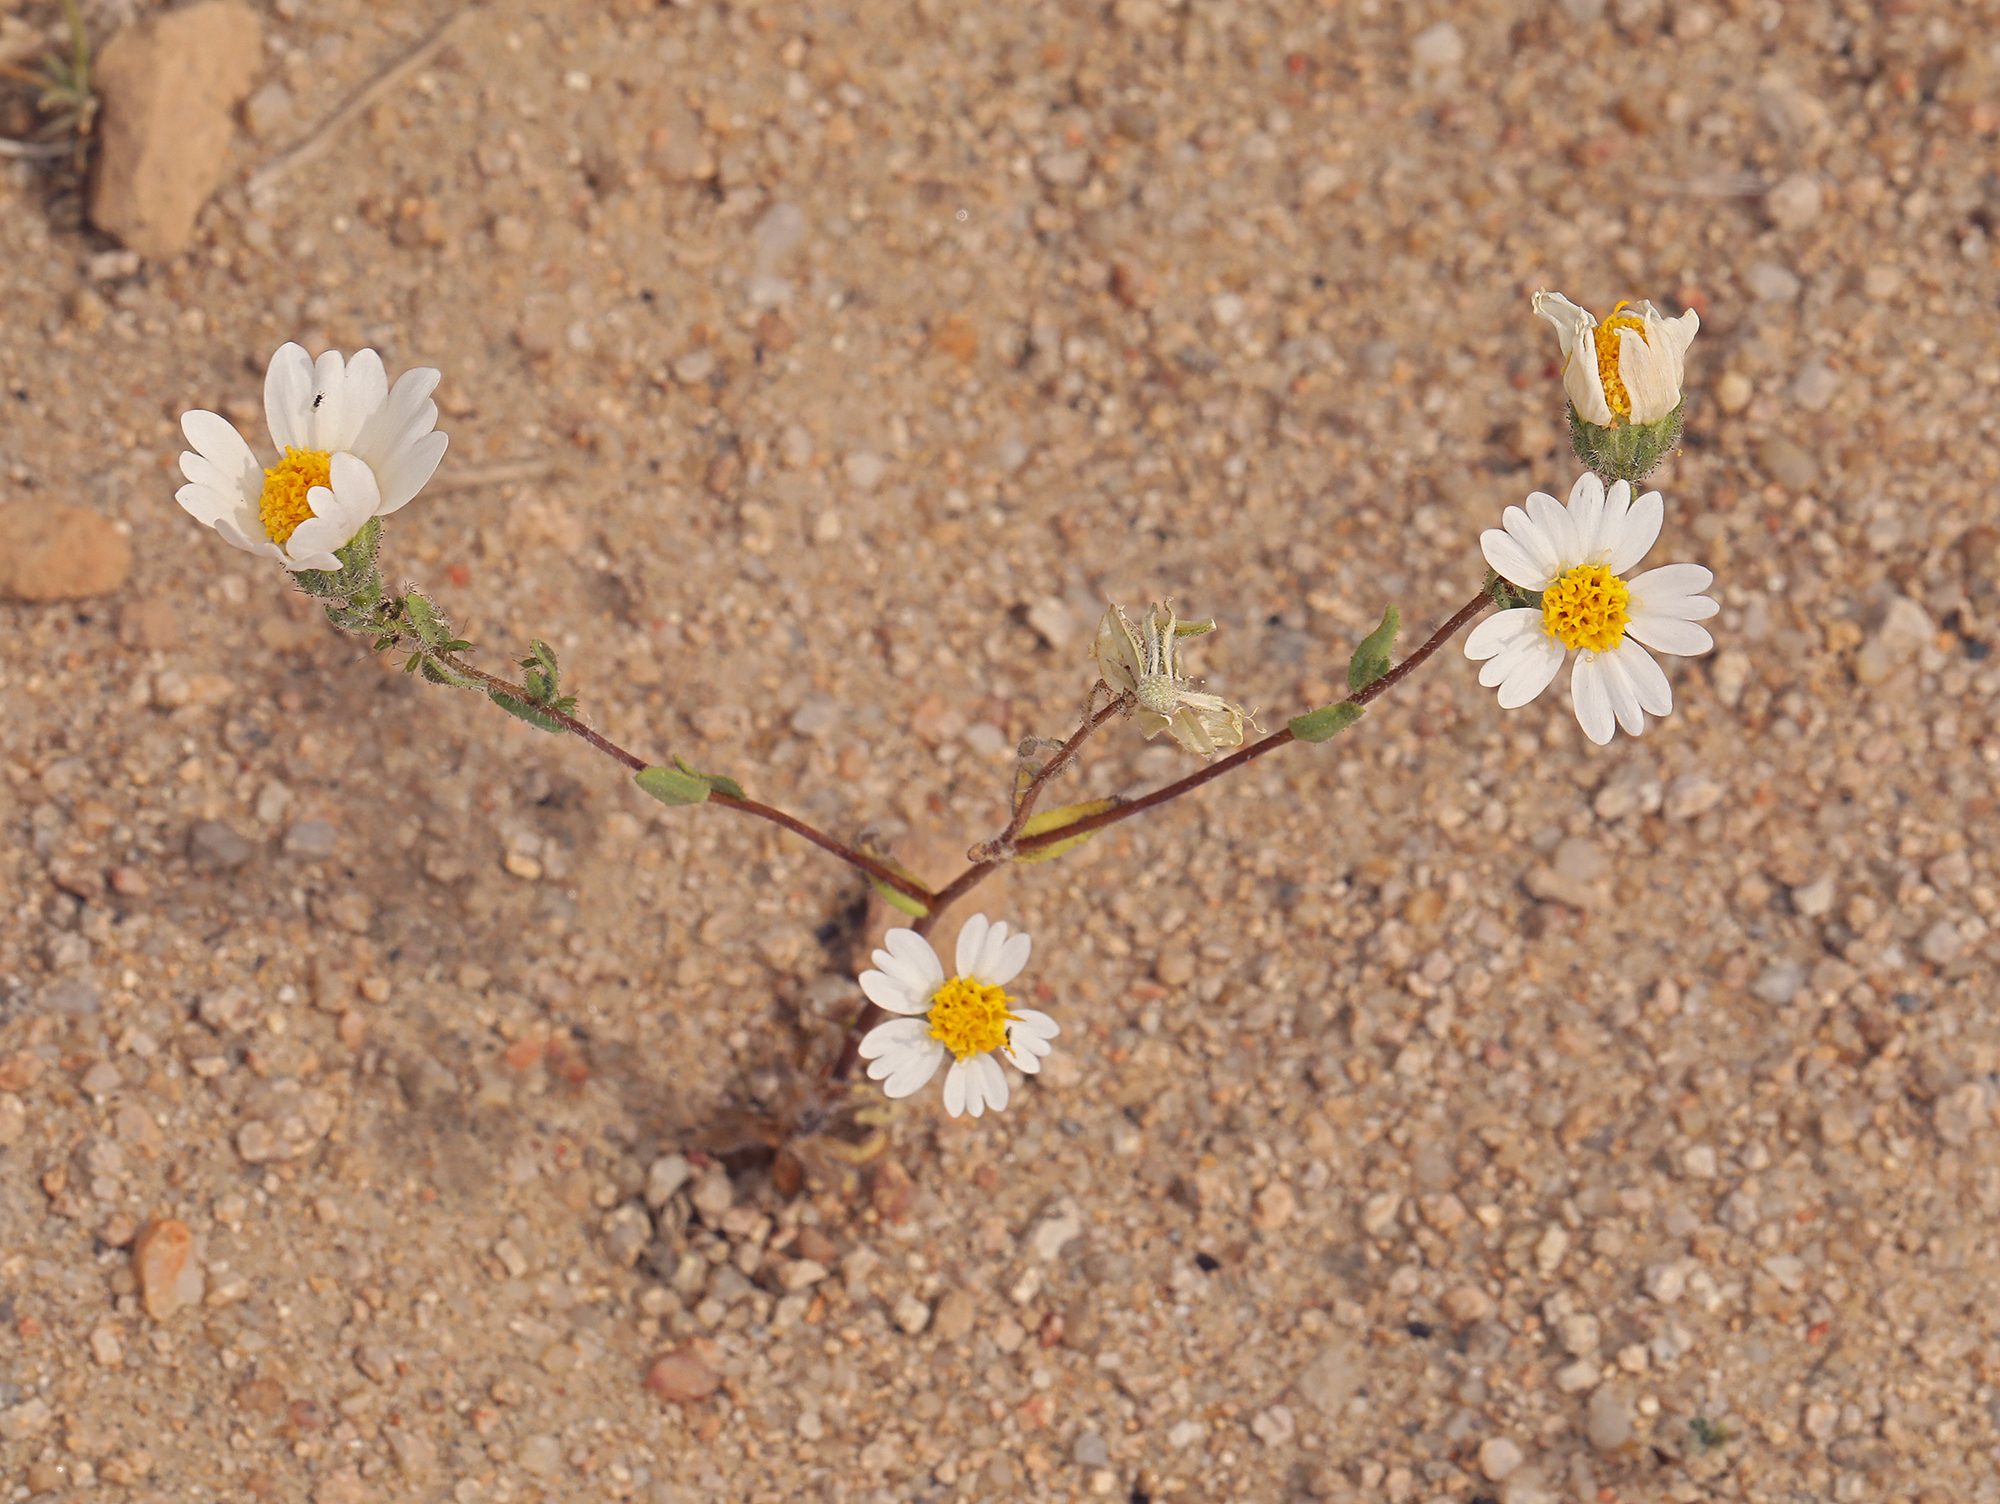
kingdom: Plantae
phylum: Tracheophyta
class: Magnoliopsida
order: Asterales
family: Asteraceae
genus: Layia
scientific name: Layia glandulosa
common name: White layia
